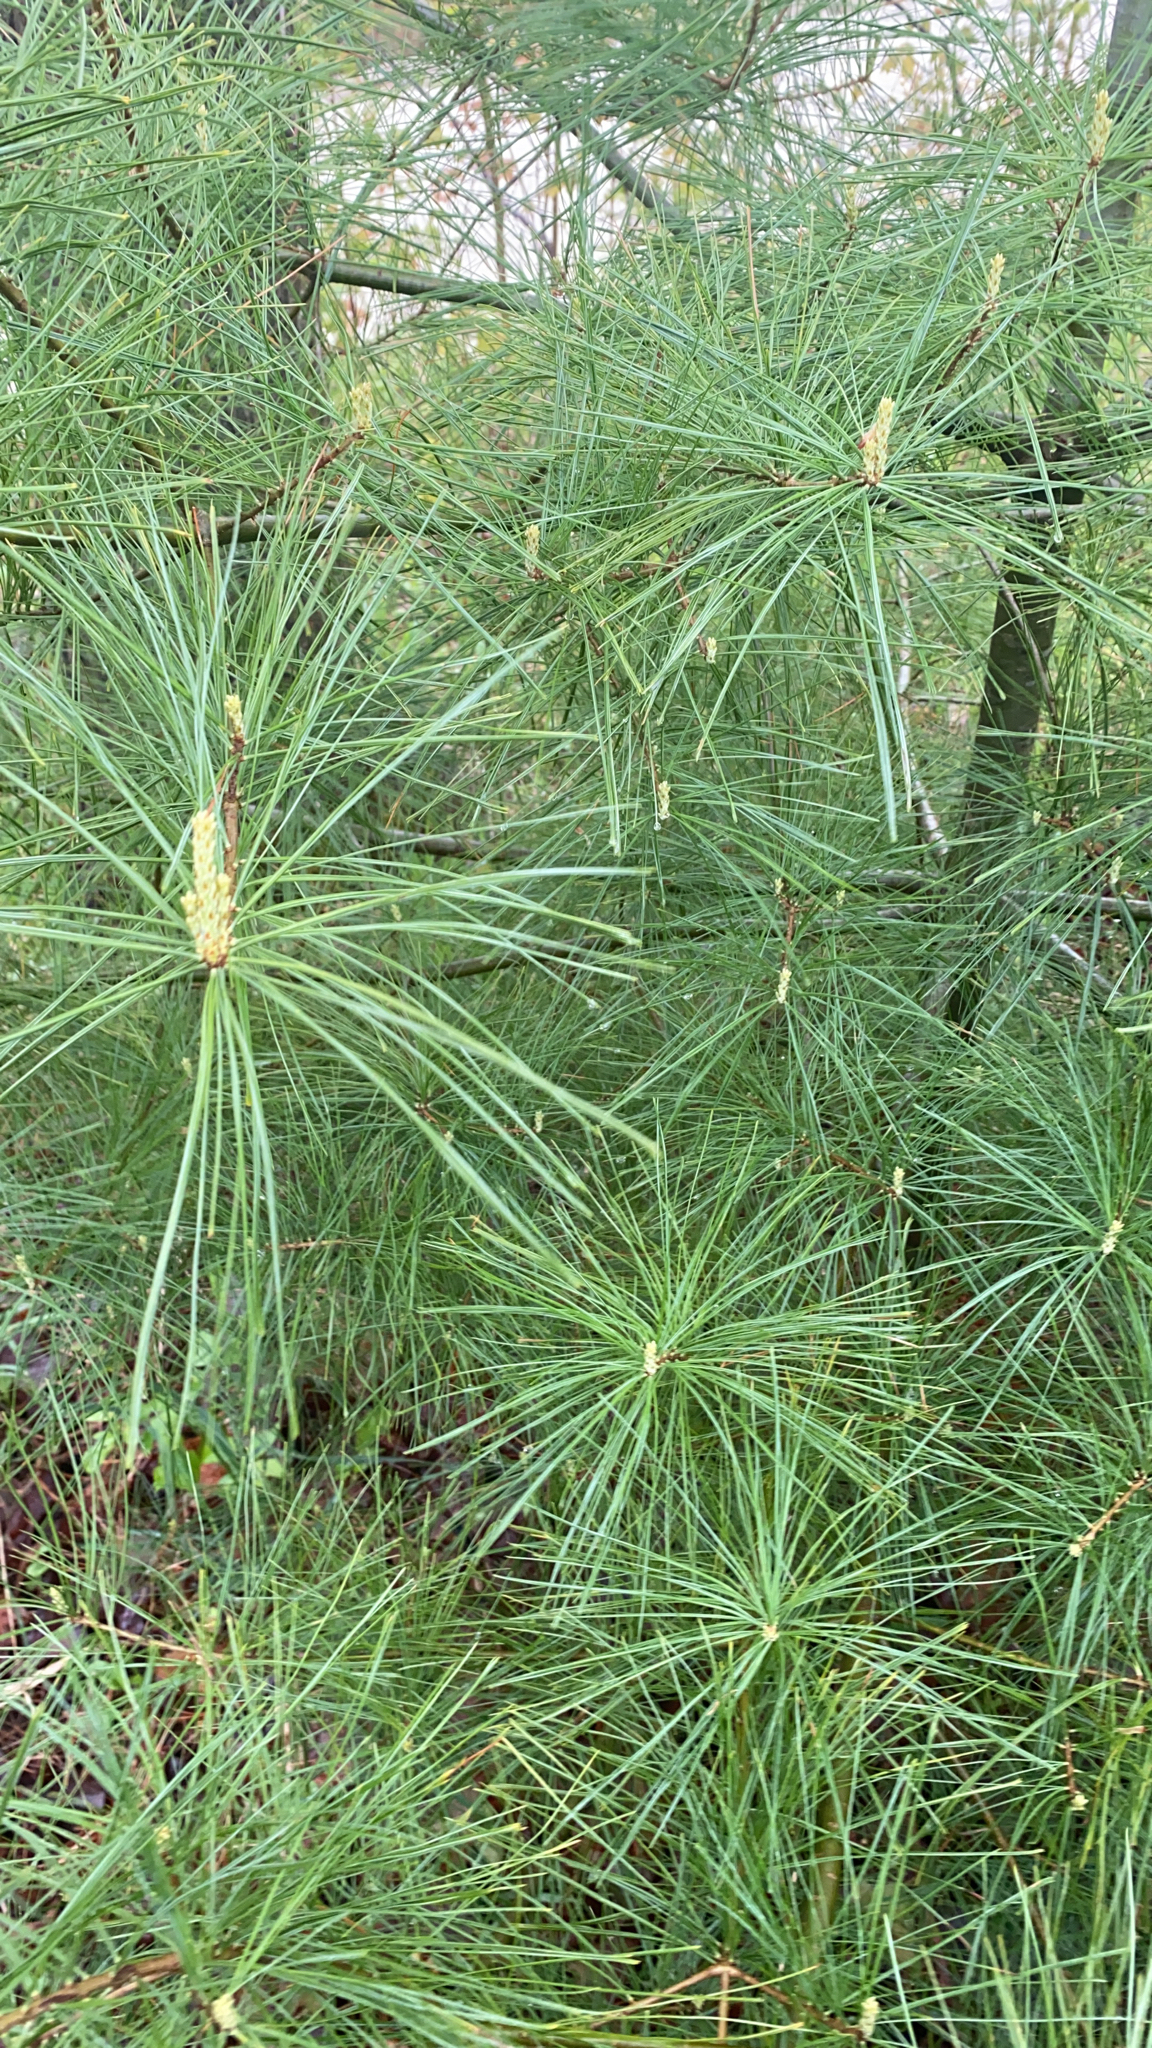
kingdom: Plantae
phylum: Tracheophyta
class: Pinopsida
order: Pinales
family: Pinaceae
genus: Pinus
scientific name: Pinus strobus
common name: Weymouth pine
